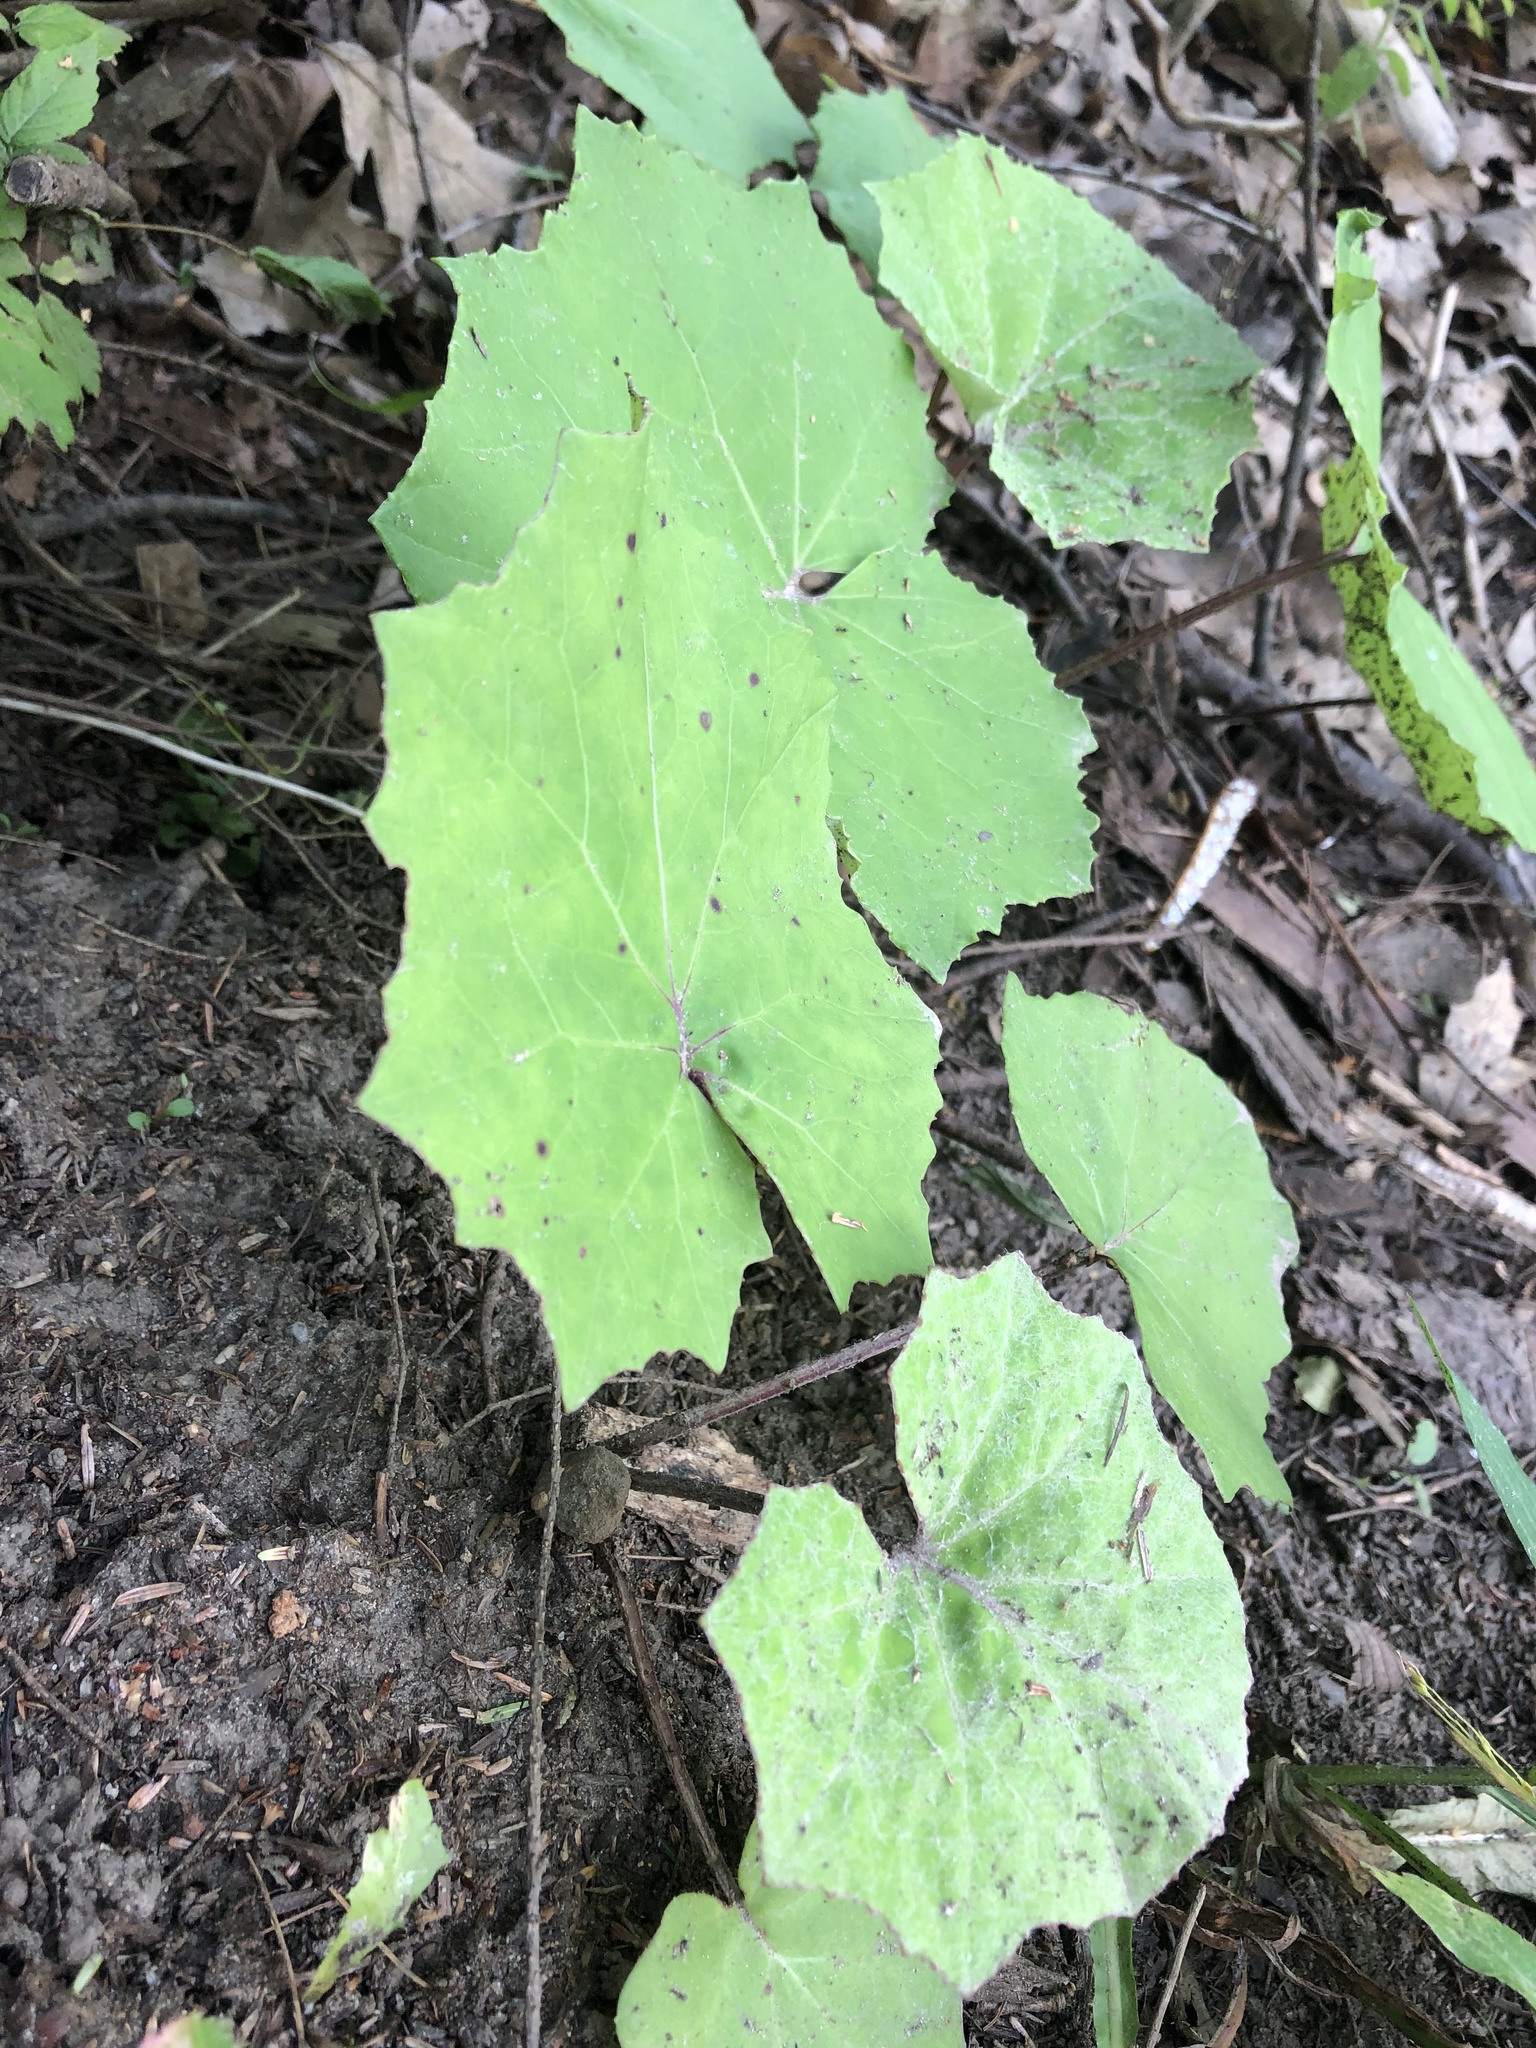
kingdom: Plantae
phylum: Tracheophyta
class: Magnoliopsida
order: Asterales
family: Asteraceae
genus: Tussilago
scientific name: Tussilago farfara
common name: Coltsfoot
